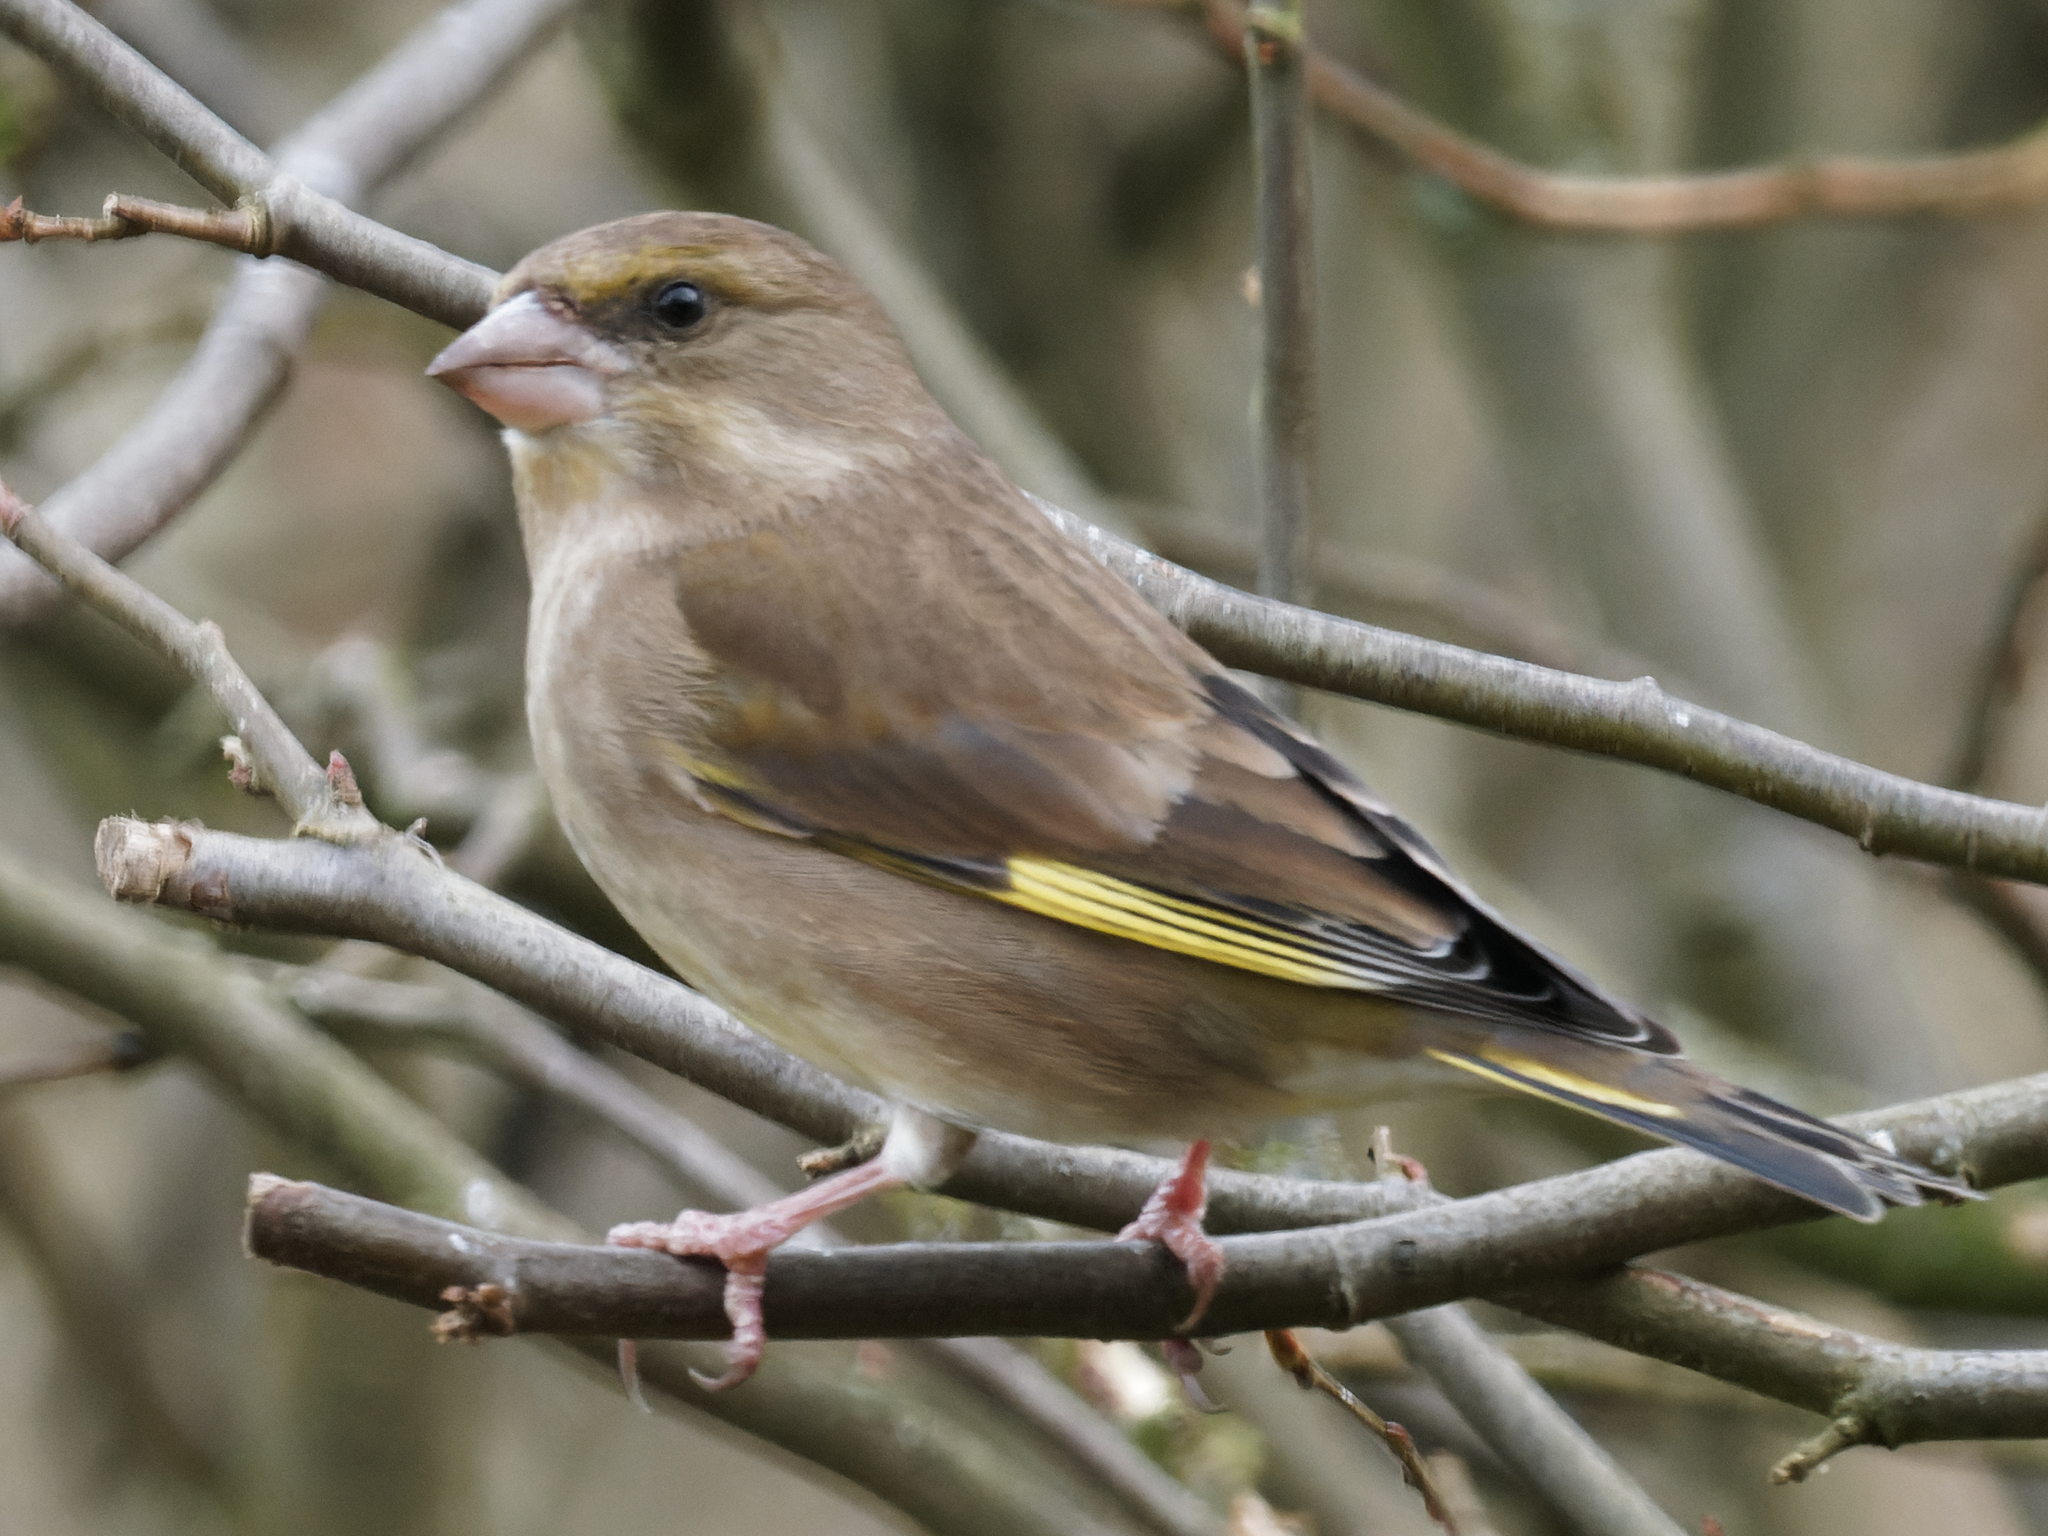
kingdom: Plantae
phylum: Tracheophyta
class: Liliopsida
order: Poales
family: Poaceae
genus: Chloris
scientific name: Chloris chloris
